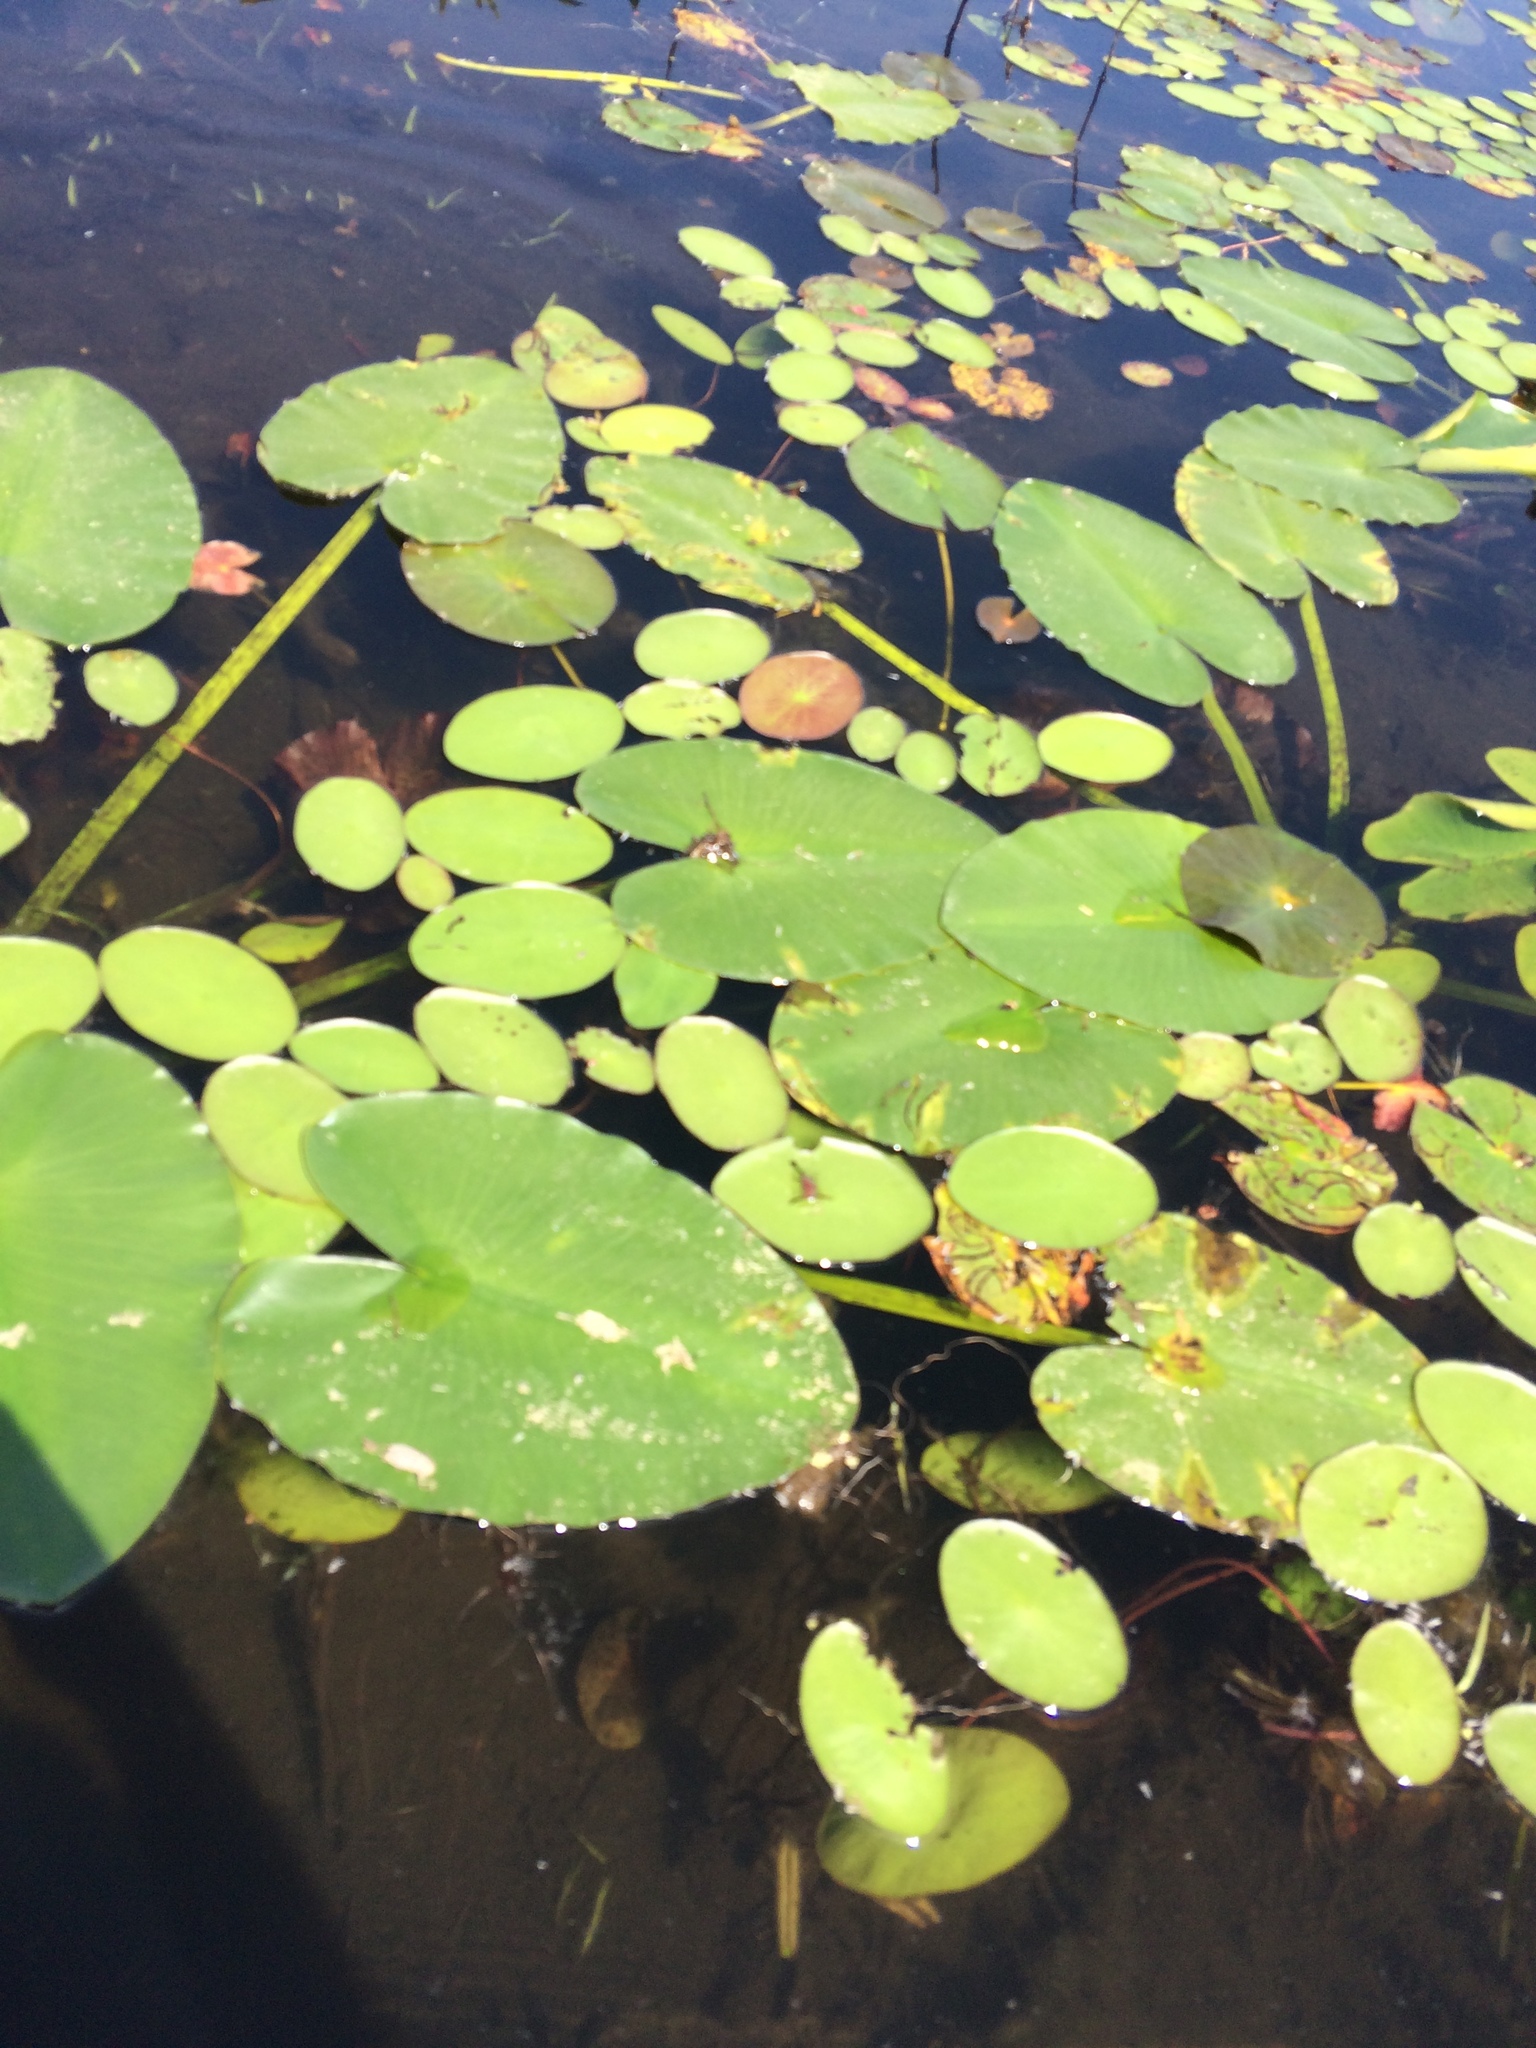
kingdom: Plantae
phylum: Tracheophyta
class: Magnoliopsida
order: Nymphaeales
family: Cabombaceae
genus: Brasenia
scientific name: Brasenia schreberi
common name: Water-shield
